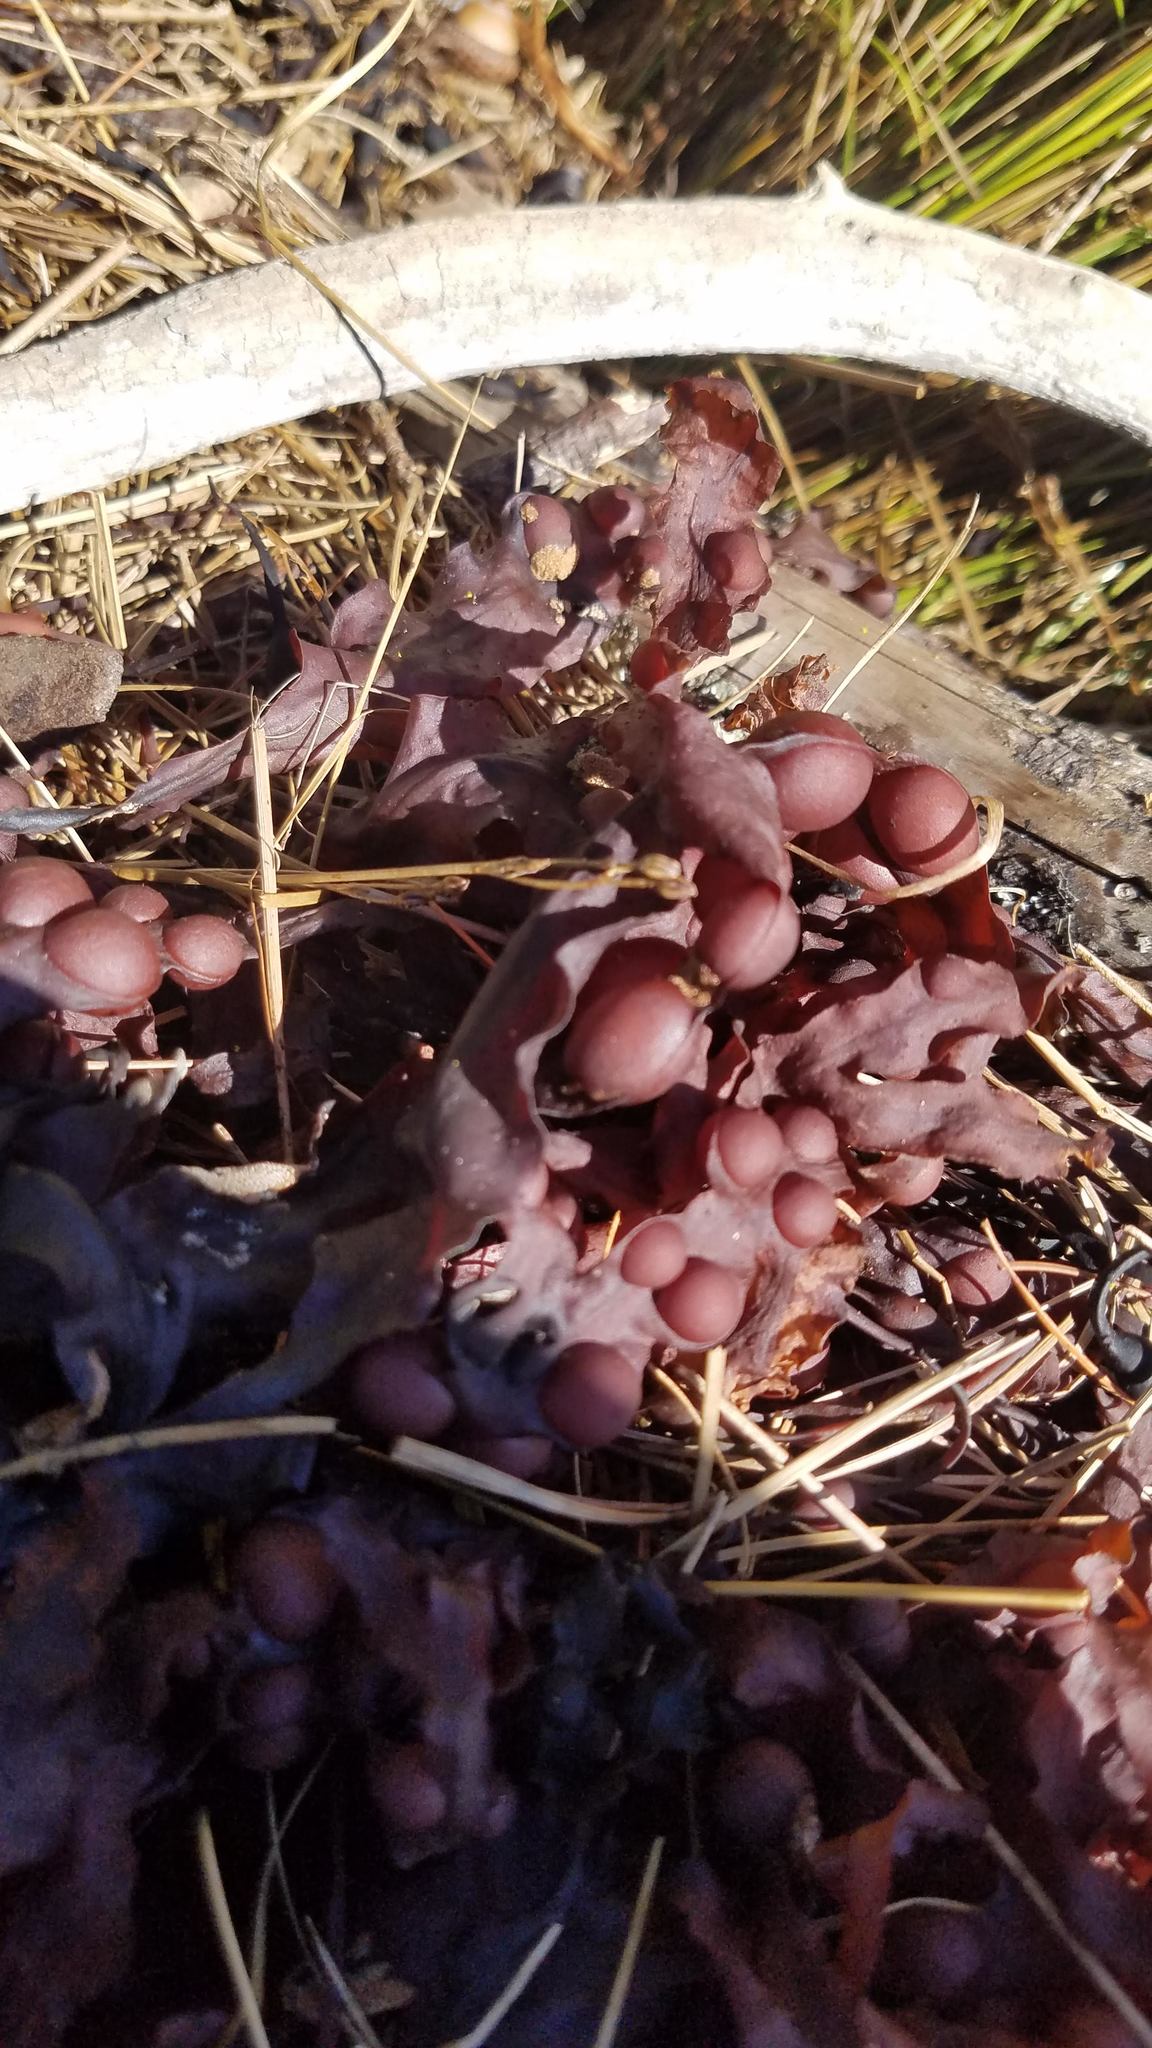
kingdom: Chromista
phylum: Ochrophyta
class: Phaeophyceae
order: Fucales
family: Fucaceae
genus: Fucus
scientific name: Fucus vesiculosus
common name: Bladder wrack
